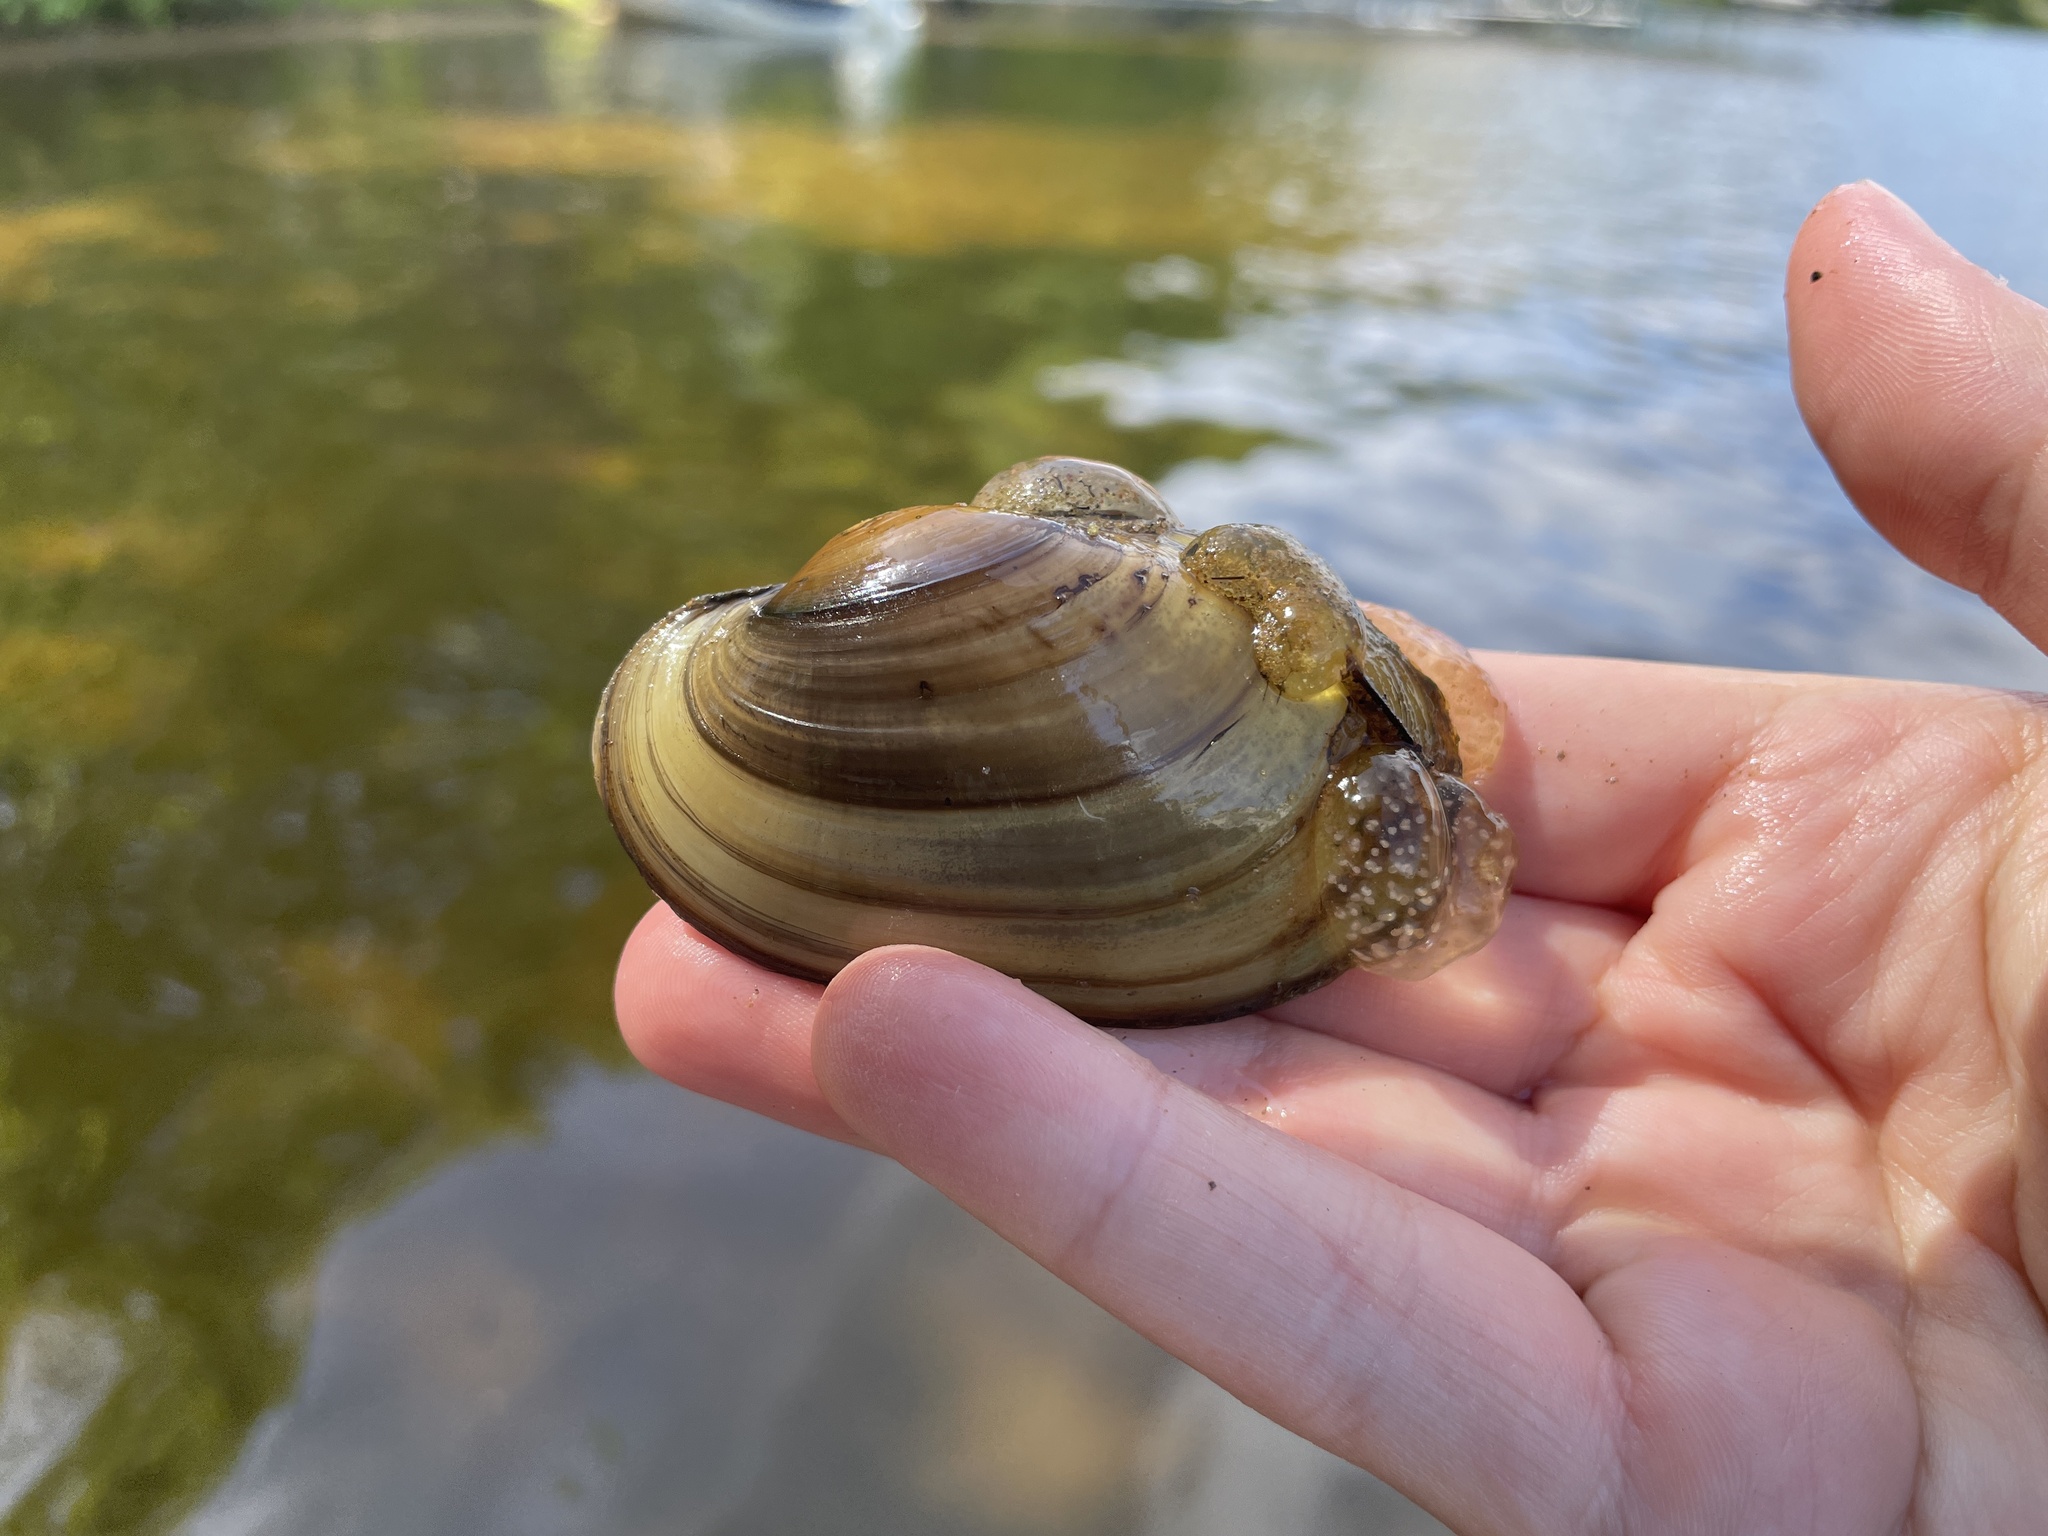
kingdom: Animalia
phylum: Mollusca
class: Bivalvia
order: Unionida
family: Unionidae
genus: Lampsilis
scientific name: Lampsilis siliquoidea
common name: Fatmucket
